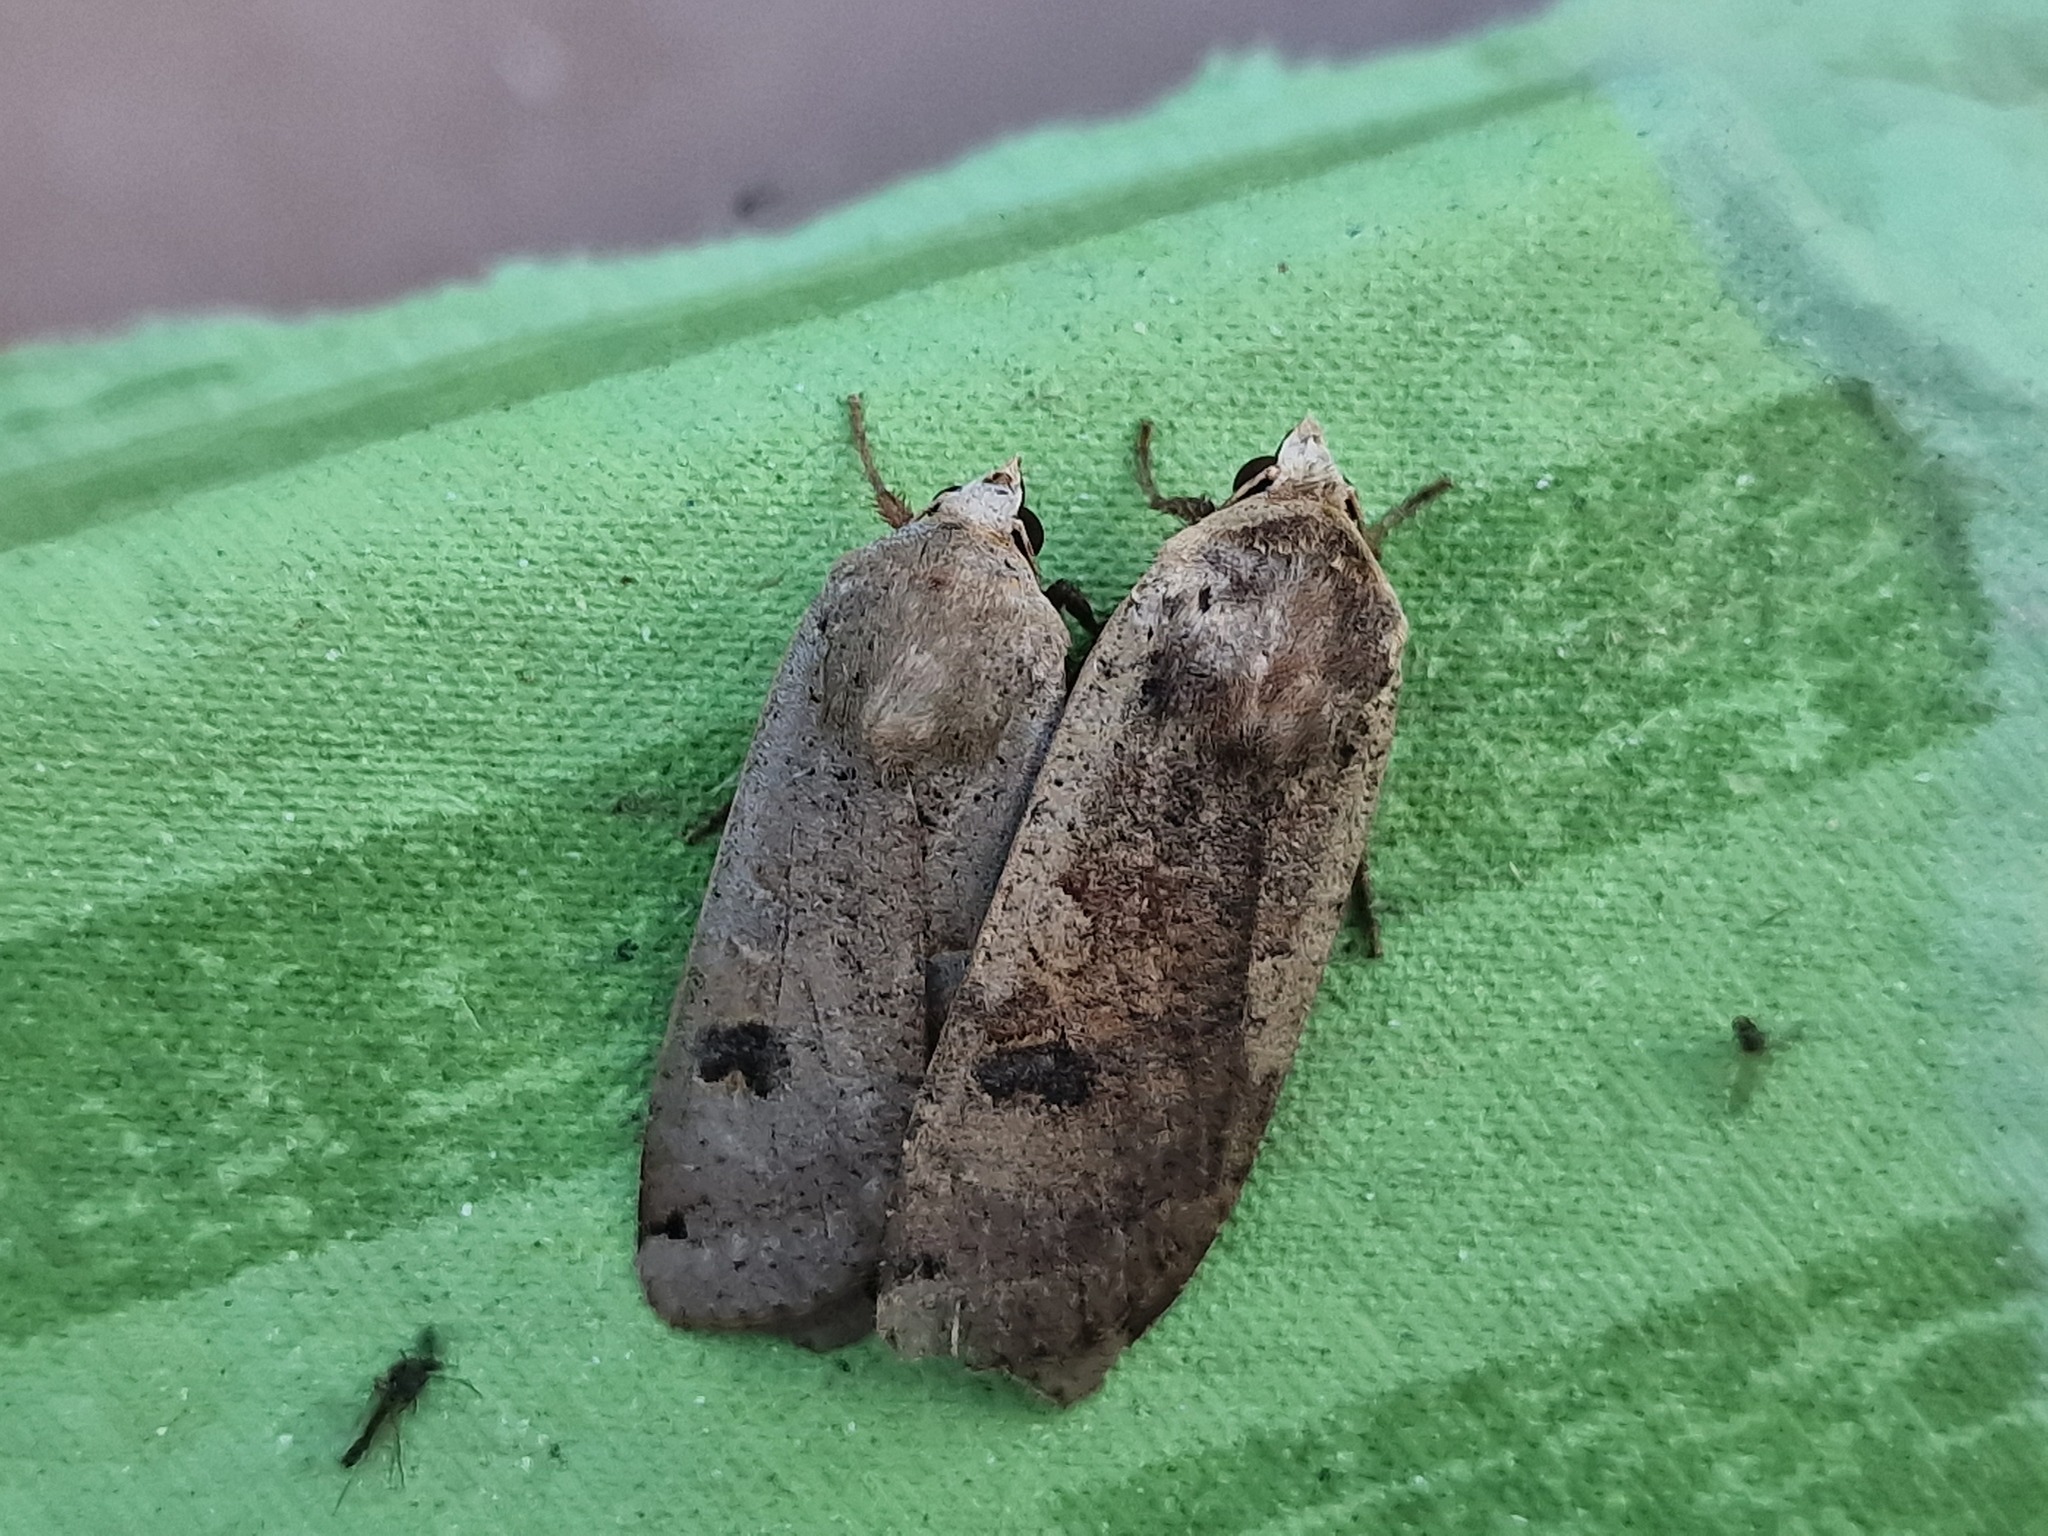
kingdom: Animalia
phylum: Arthropoda
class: Insecta
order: Lepidoptera
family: Noctuidae
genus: Noctua
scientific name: Noctua pronuba
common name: Large yellow underwing
